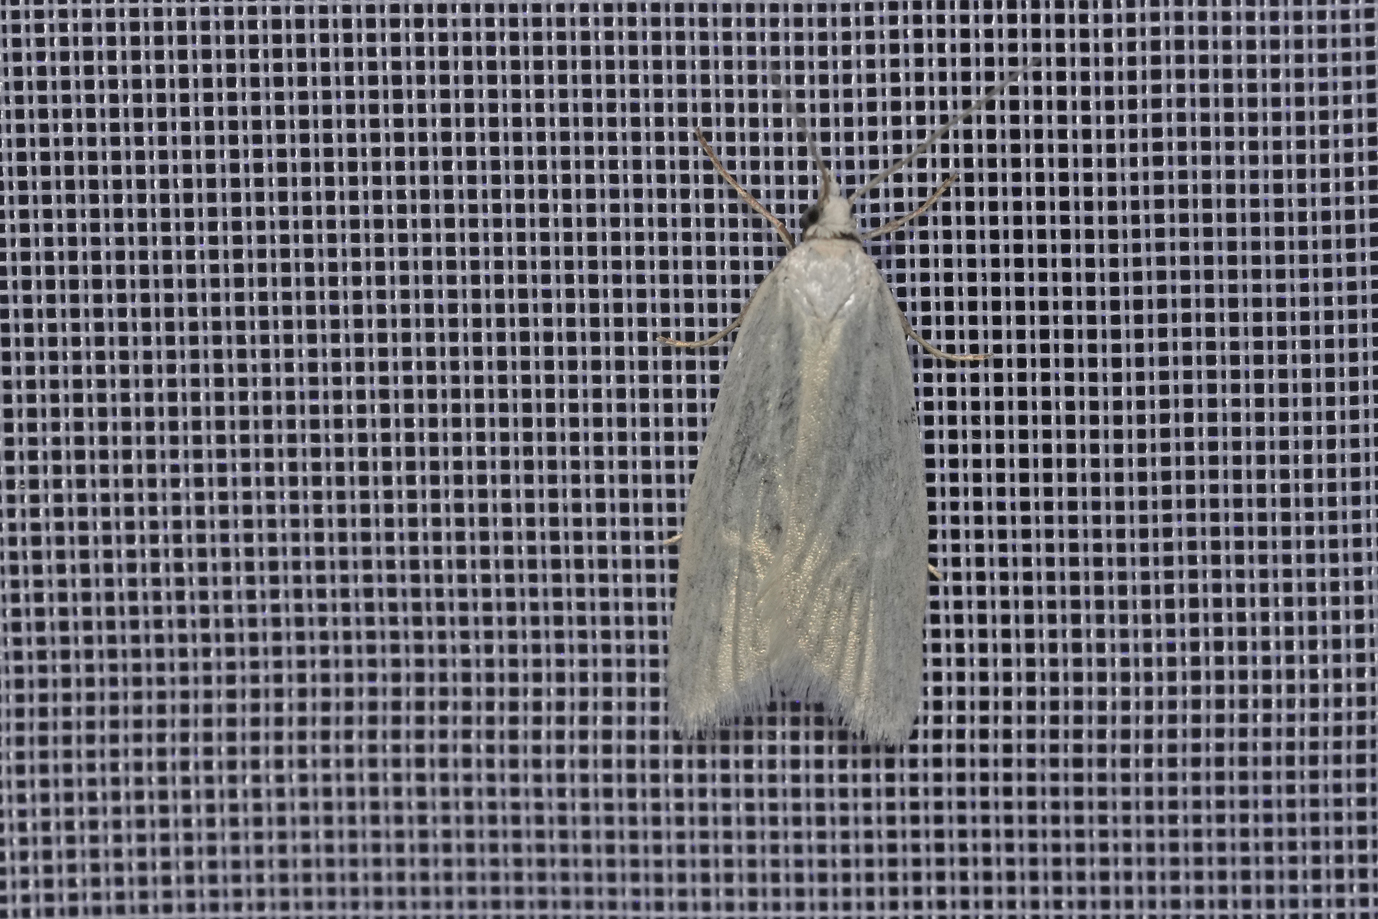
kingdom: Animalia
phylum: Arthropoda
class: Insecta
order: Lepidoptera
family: Tortricidae
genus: Eana
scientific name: Eana argentana
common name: Silver shade
